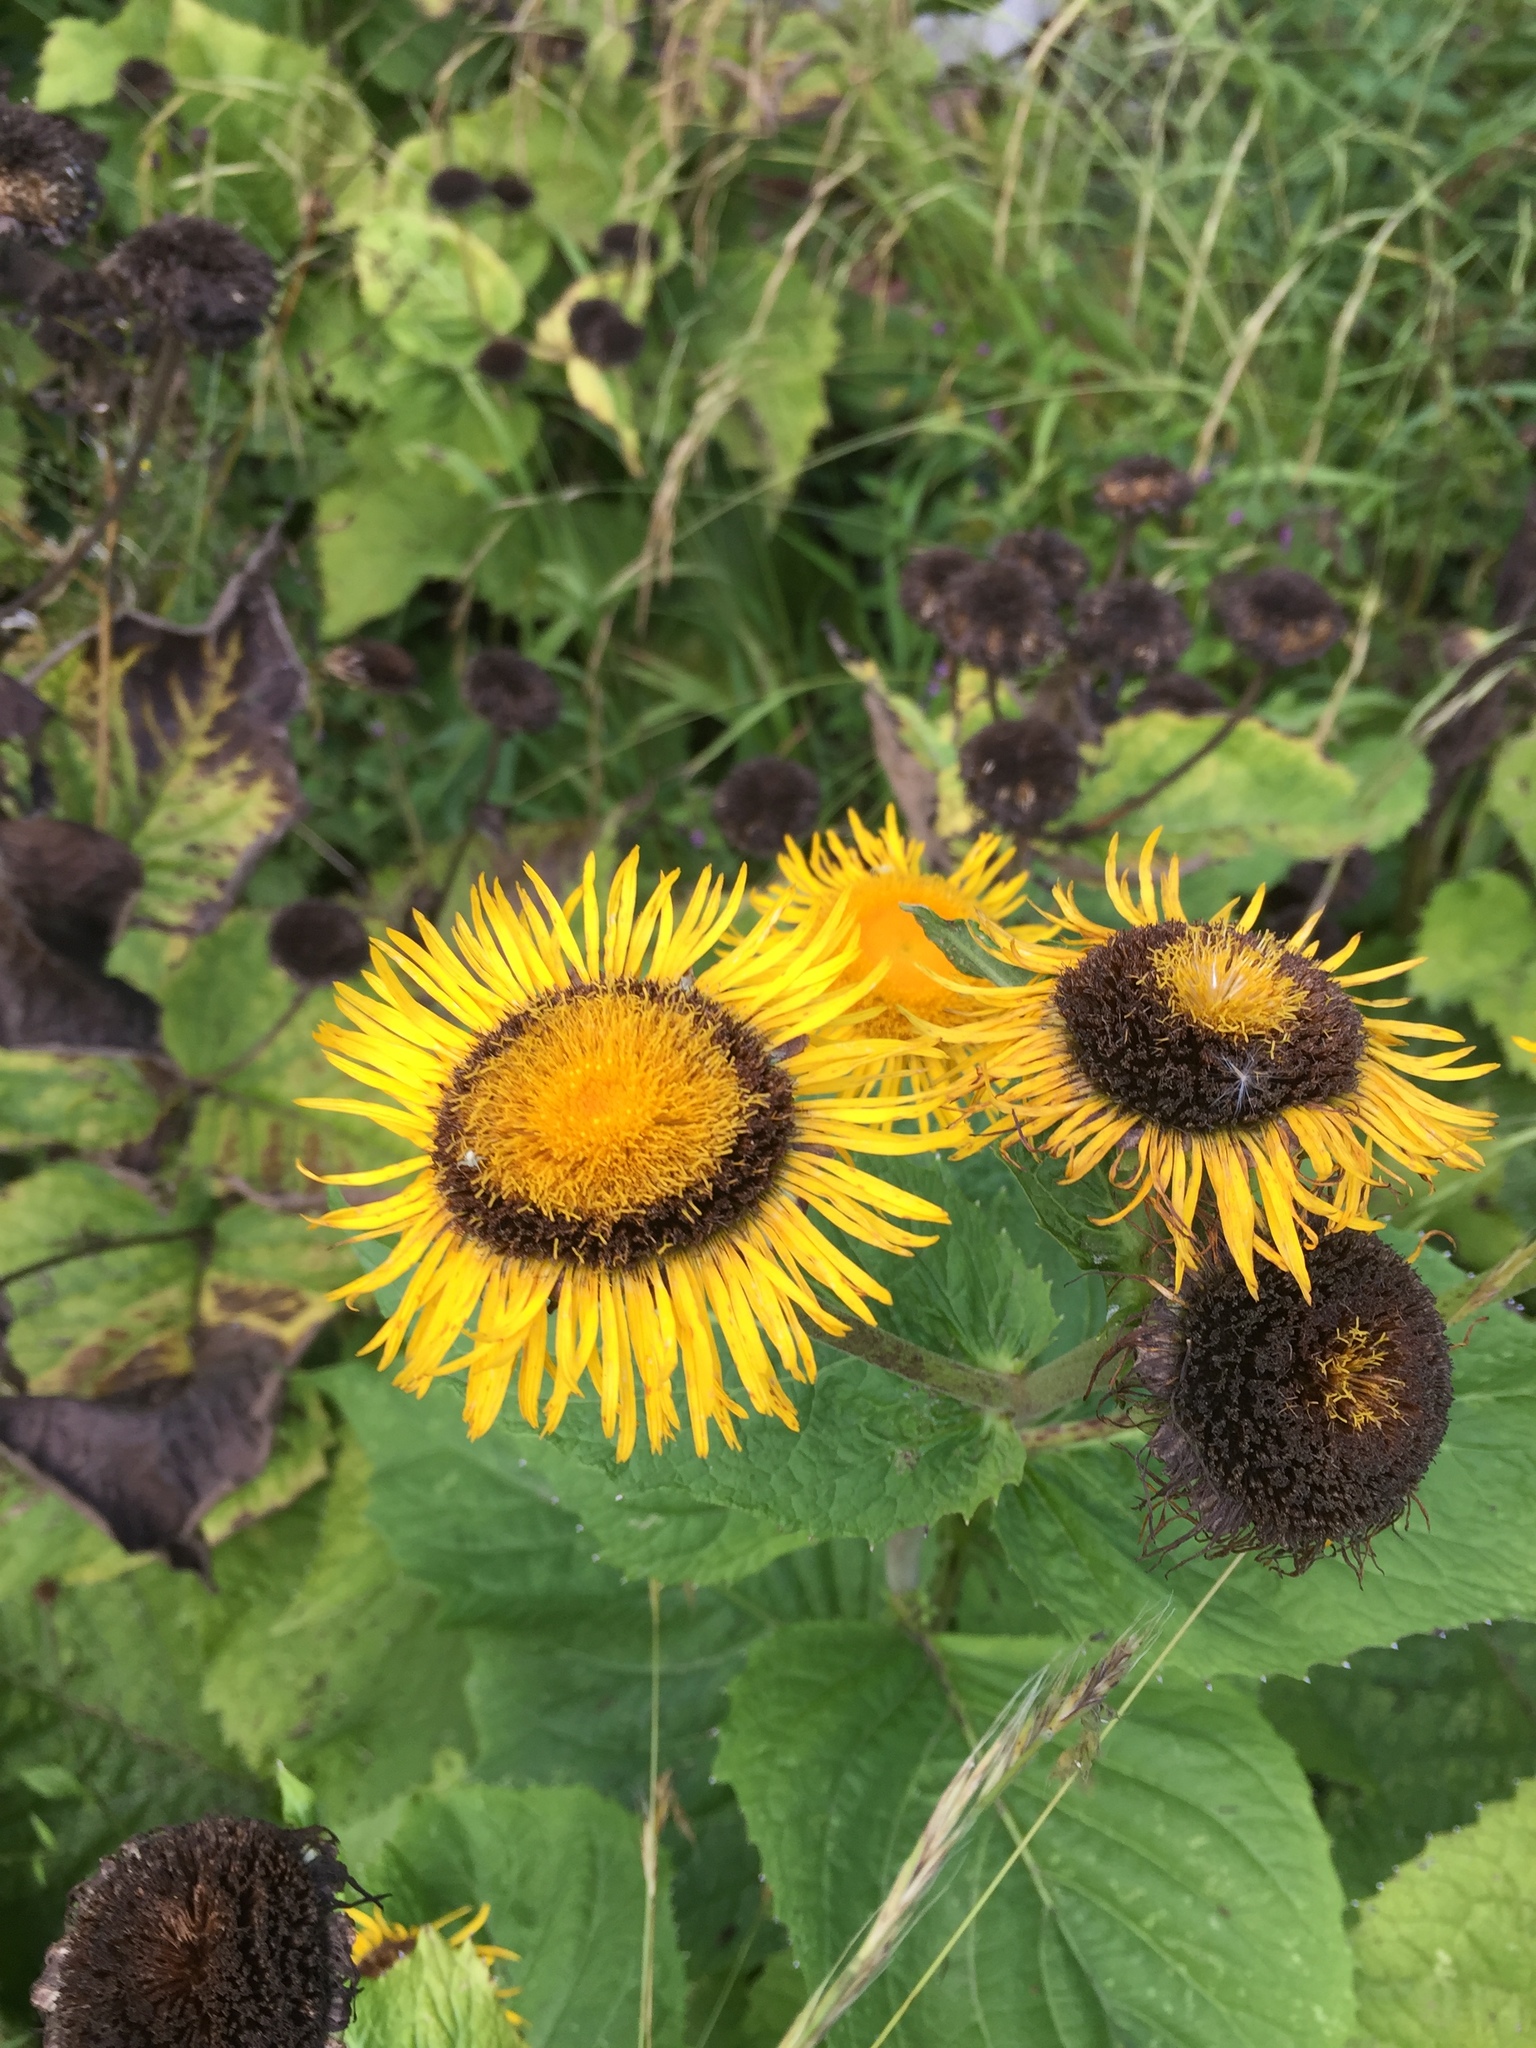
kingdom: Plantae
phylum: Tracheophyta
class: Magnoliopsida
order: Asterales
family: Asteraceae
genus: Telekia
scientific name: Telekia speciosa
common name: Yellow oxeye
